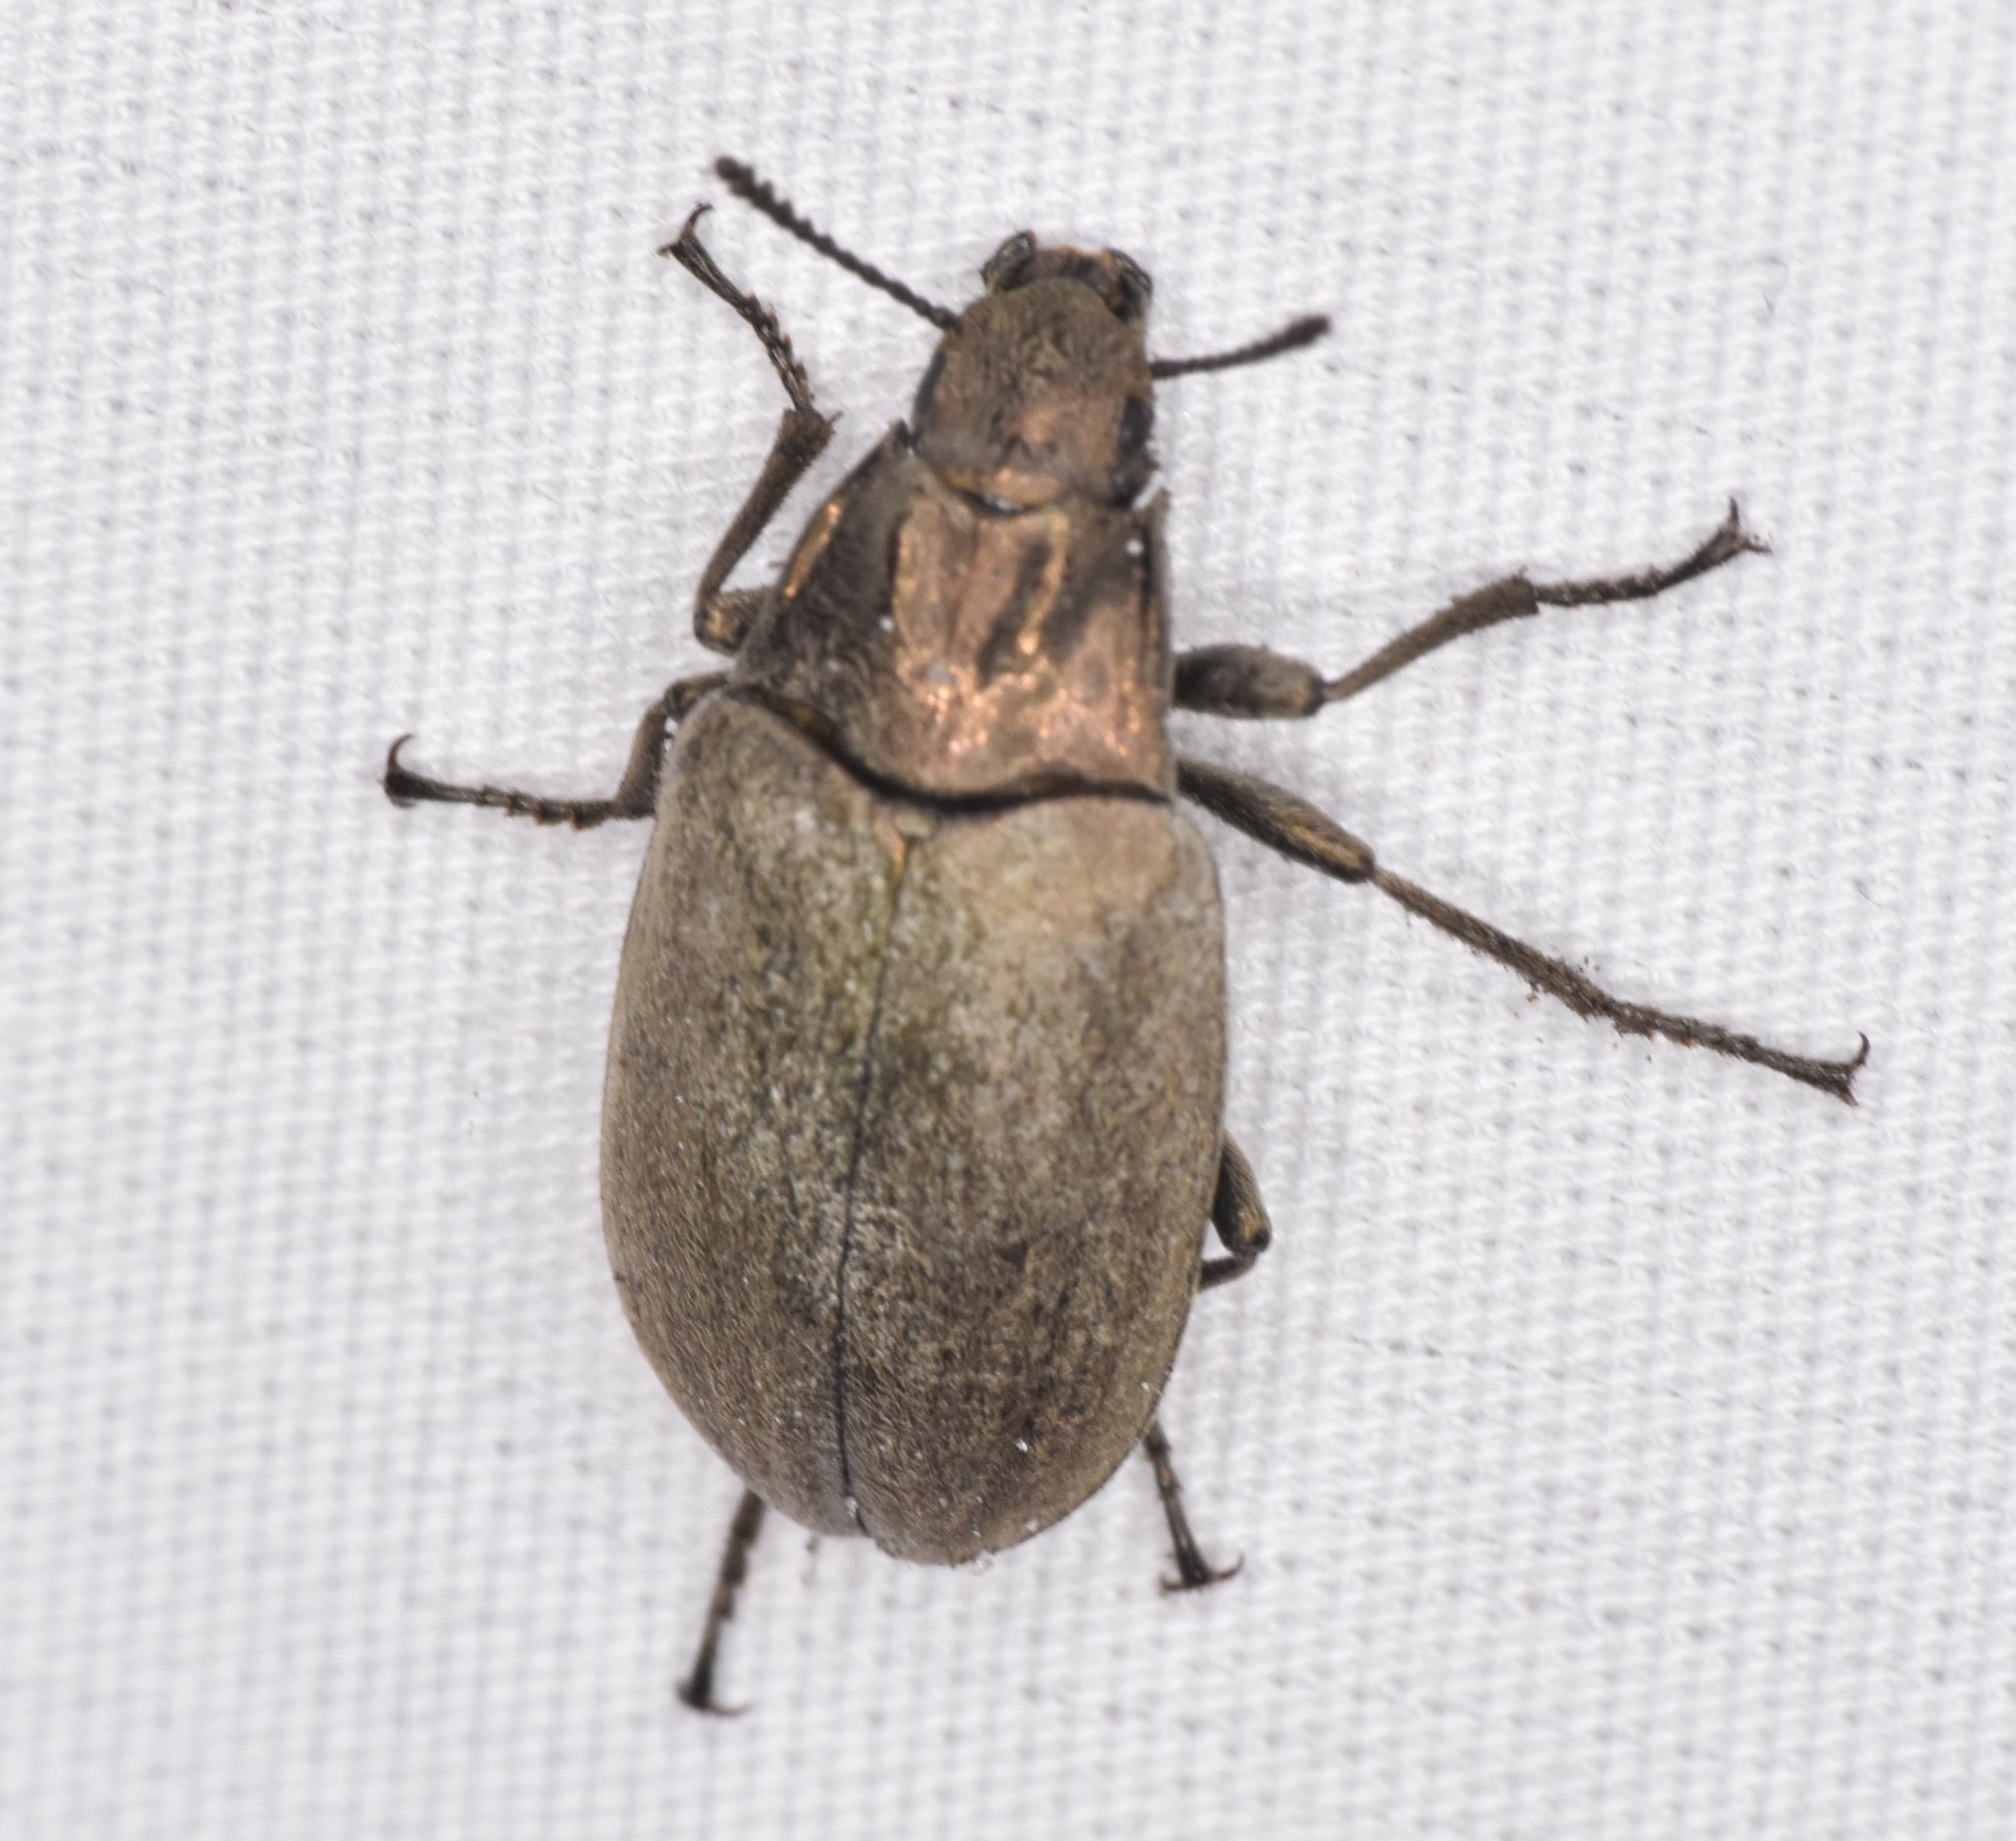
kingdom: Animalia
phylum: Arthropoda
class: Insecta
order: Coleoptera
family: Tenebrionidae
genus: Bothrotes
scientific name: Bothrotes canaliculatus
